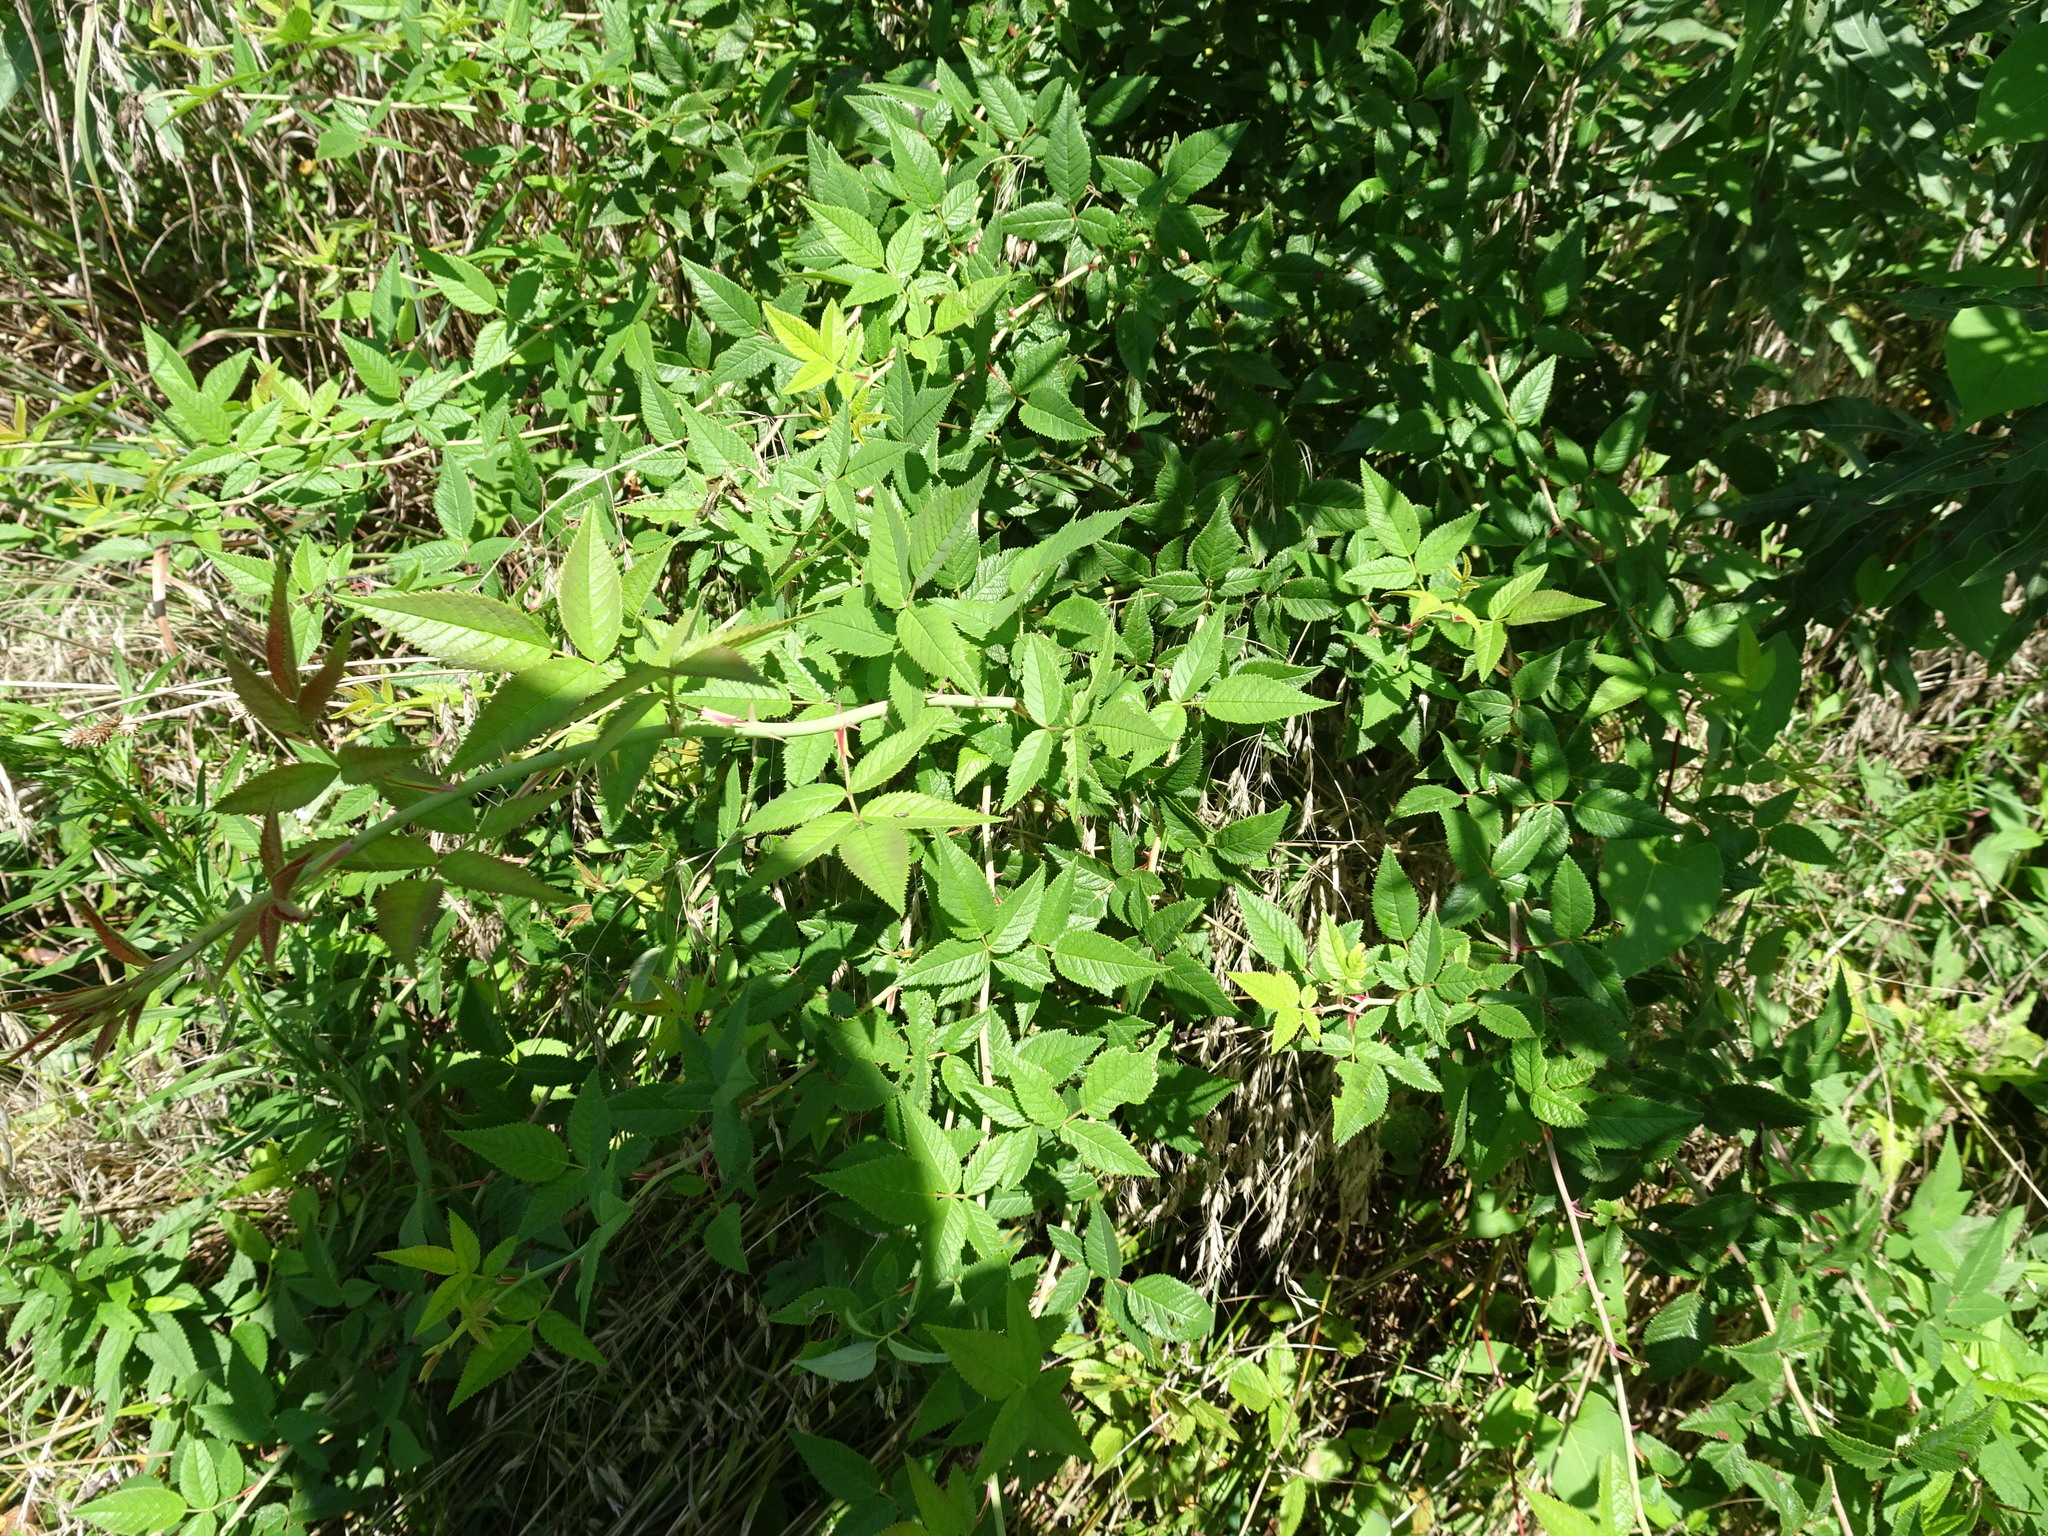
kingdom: Plantae
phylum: Tracheophyta
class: Magnoliopsida
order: Rosales
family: Rosaceae
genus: Rosa
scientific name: Rosa setigera
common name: Prairie rose
